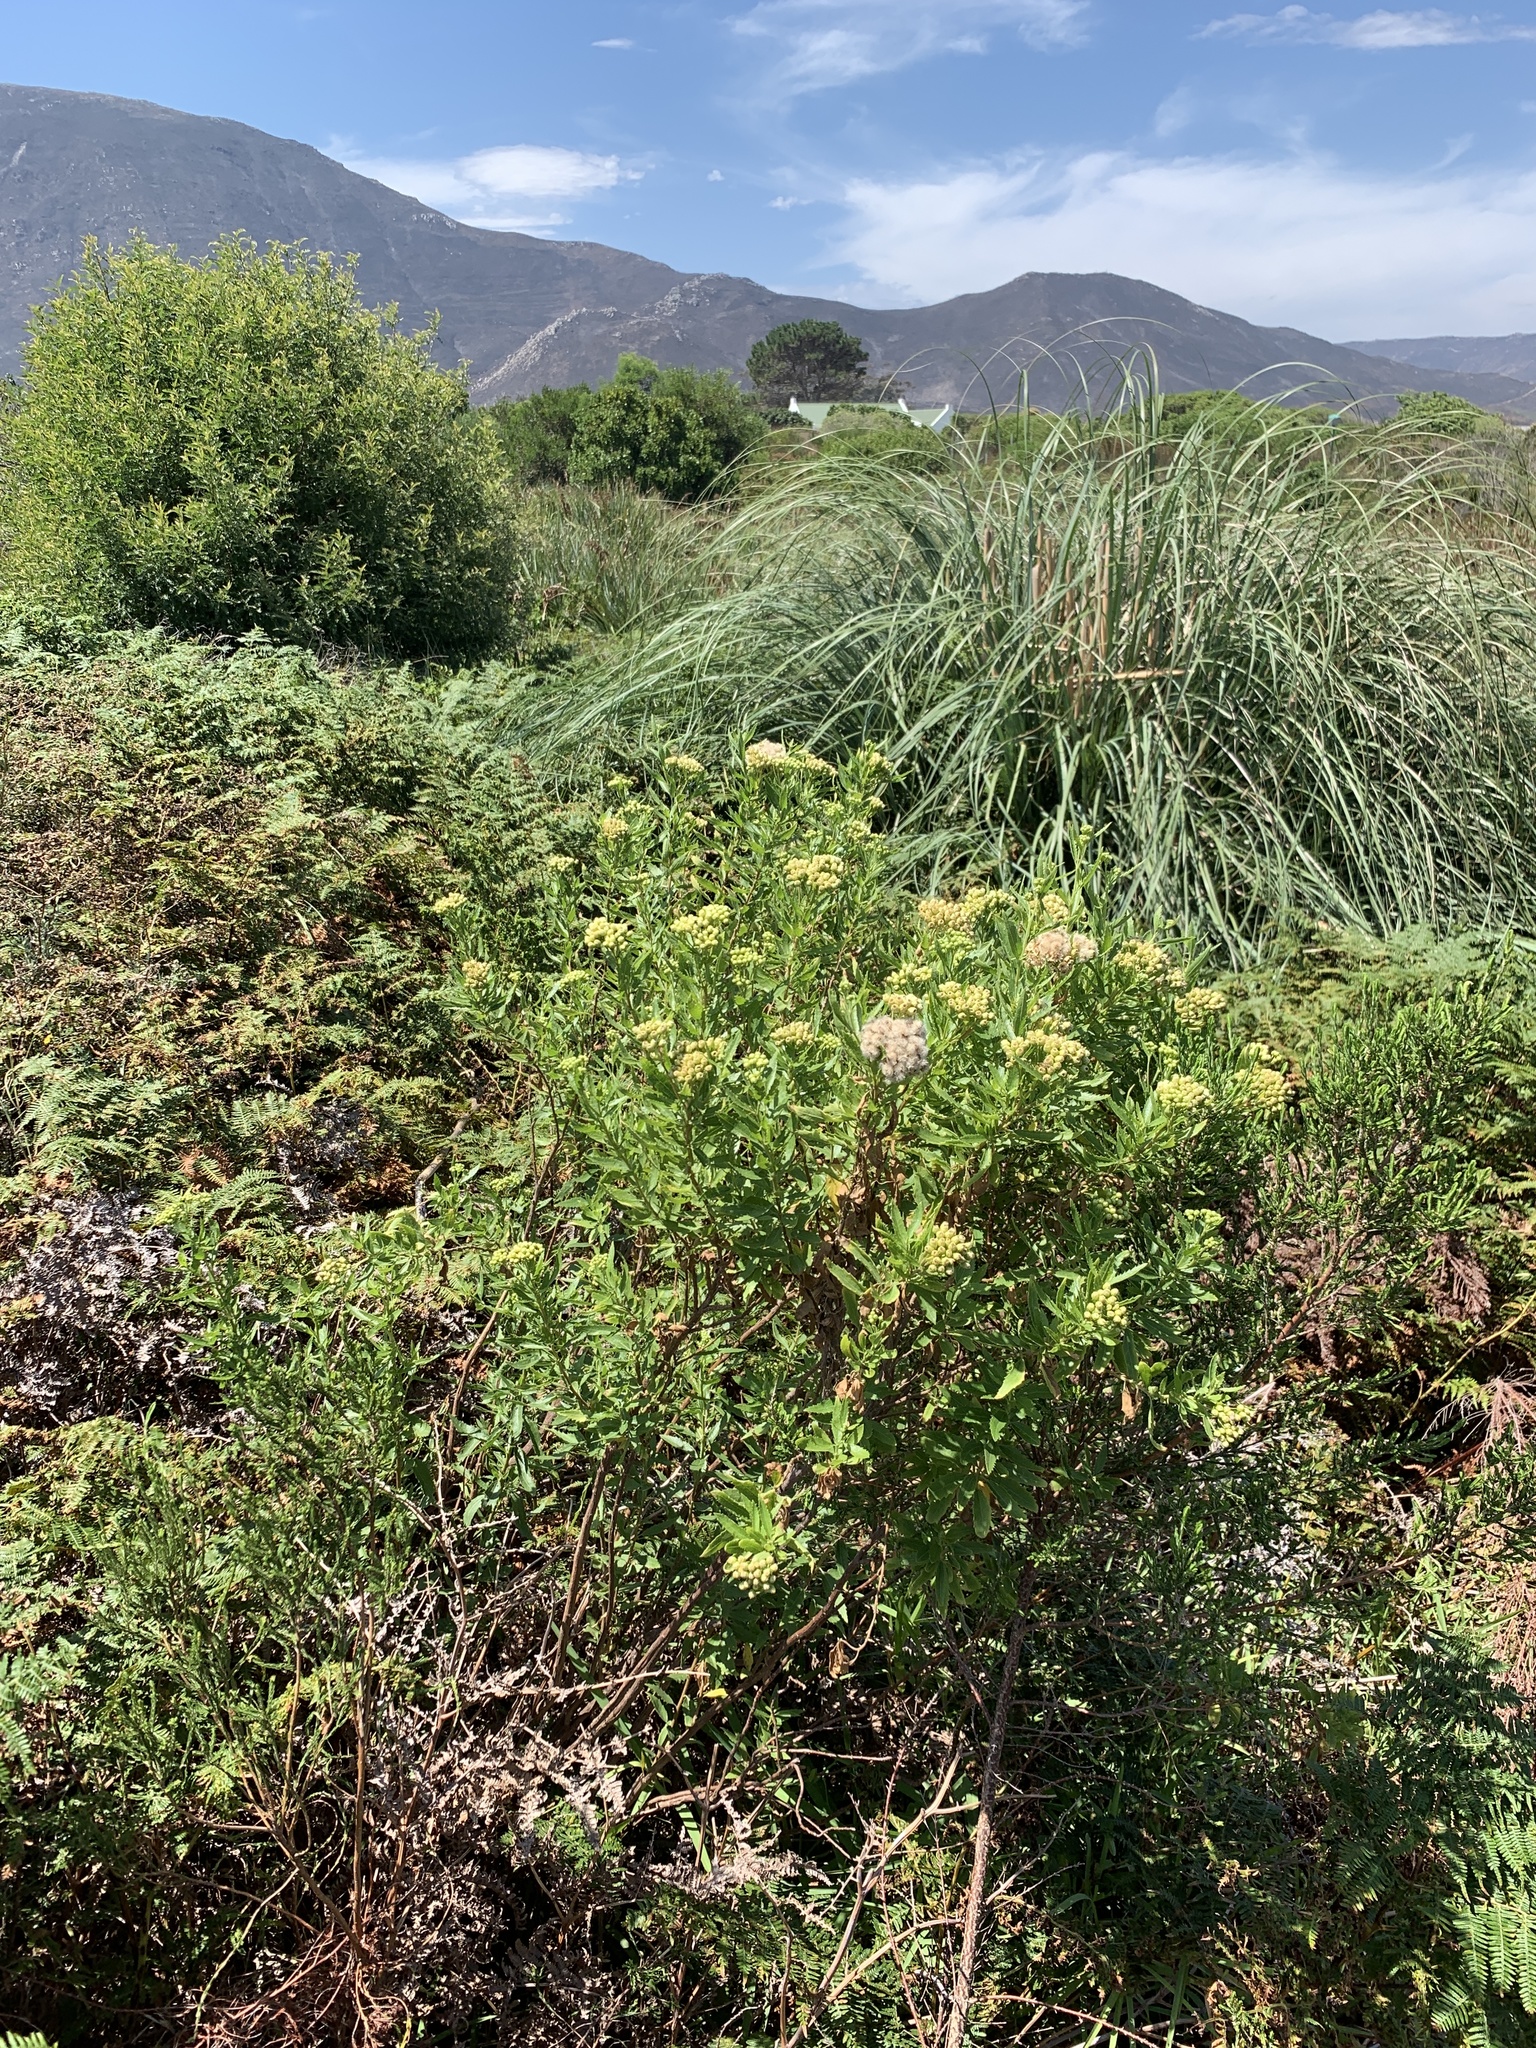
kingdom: Plantae
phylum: Tracheophyta
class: Magnoliopsida
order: Asterales
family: Asteraceae
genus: Nidorella
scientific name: Nidorella ivifolia
